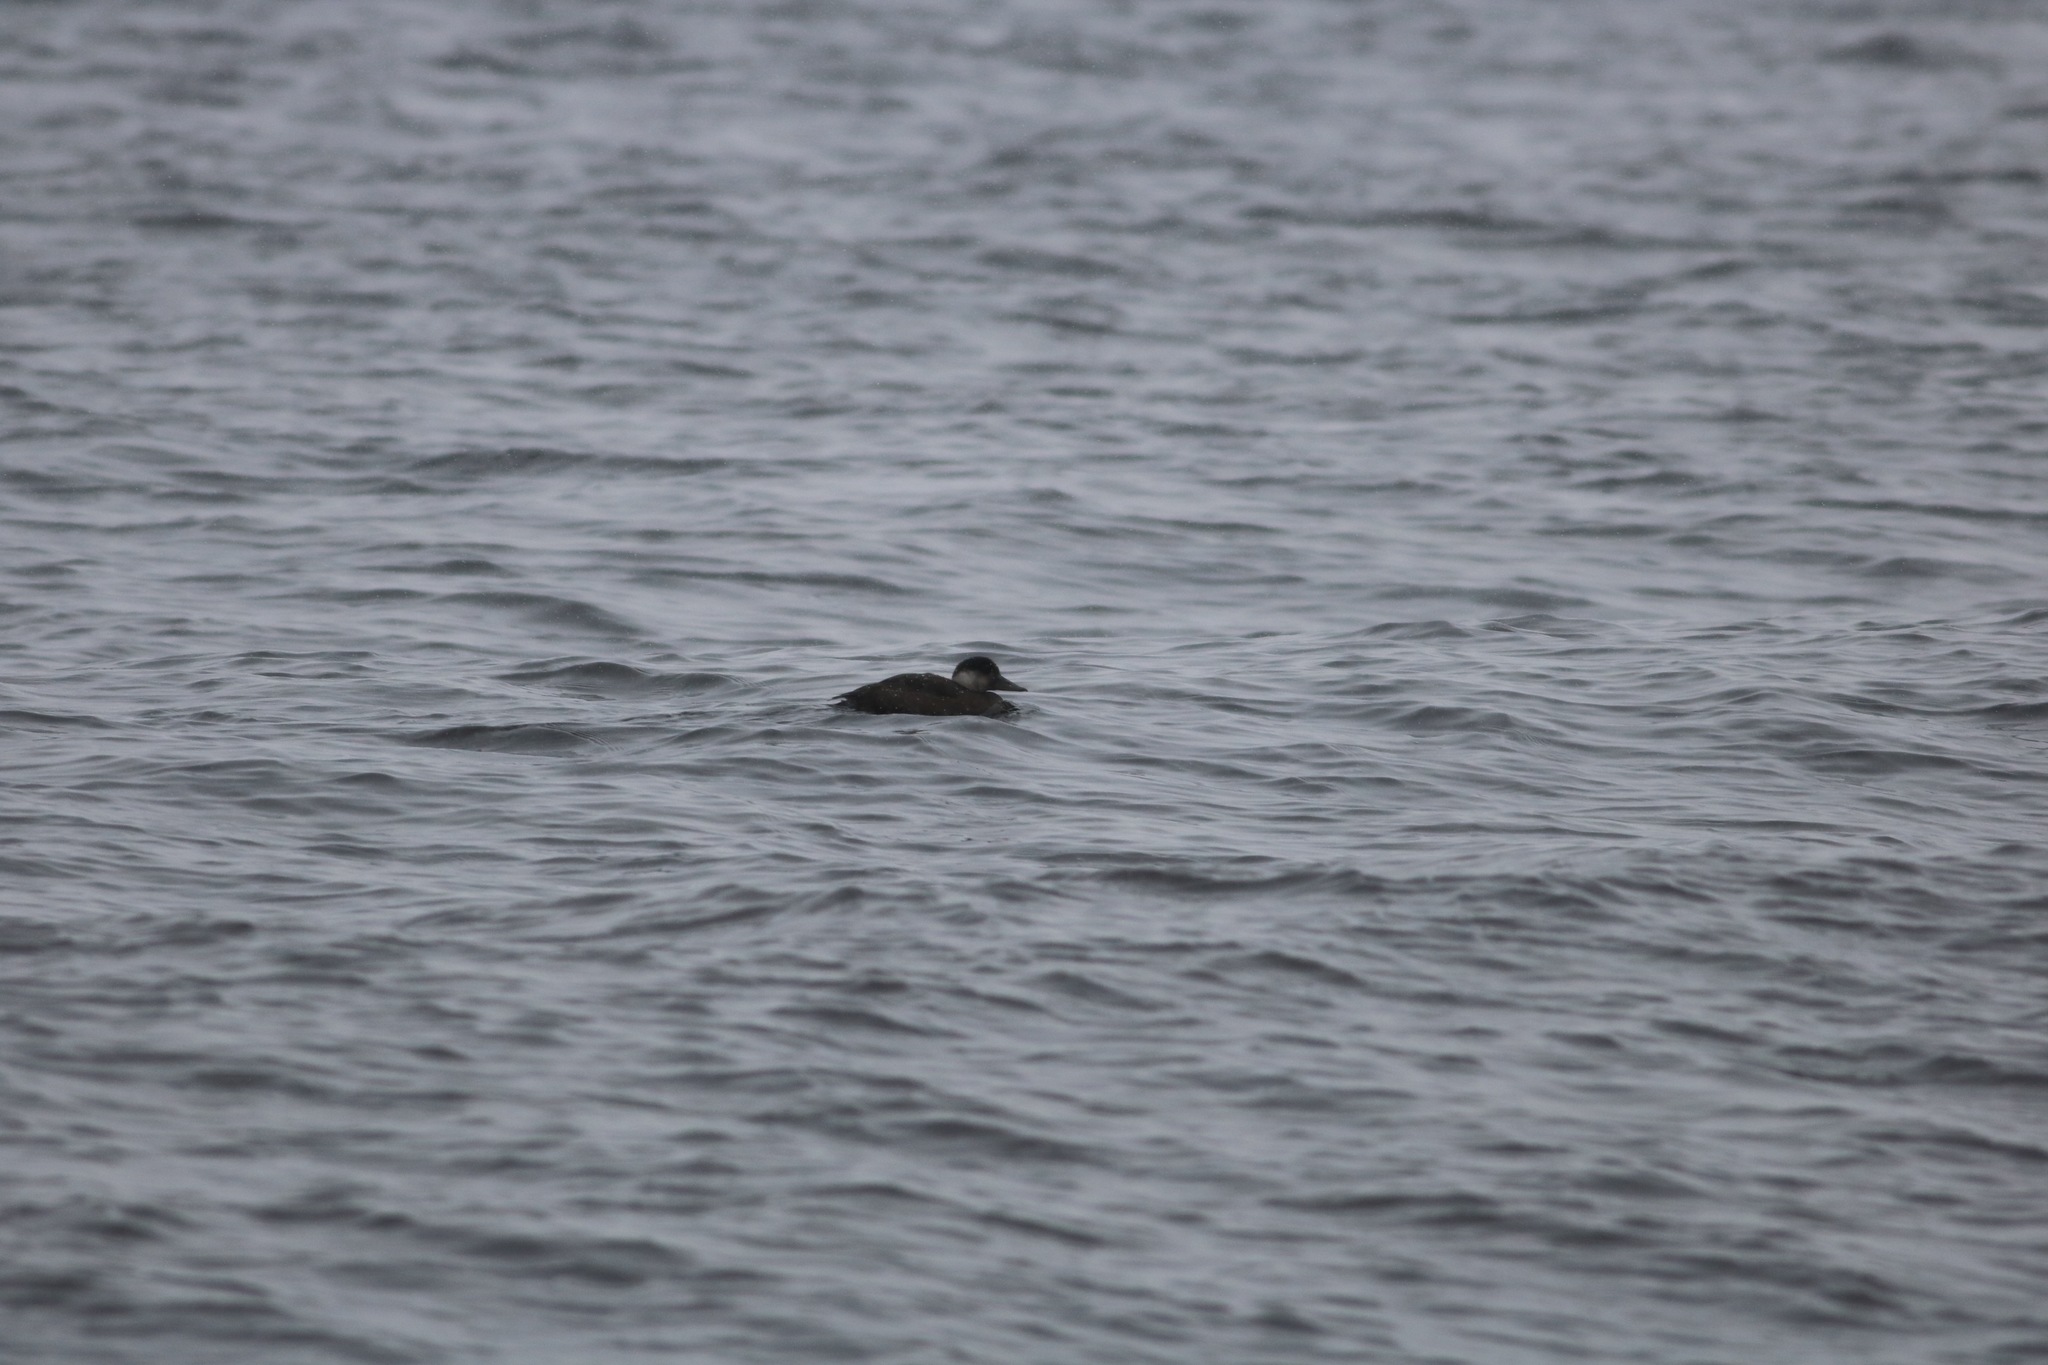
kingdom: Animalia
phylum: Chordata
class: Aves
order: Anseriformes
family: Anatidae
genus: Melanitta
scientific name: Melanitta nigra
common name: Common scoter
